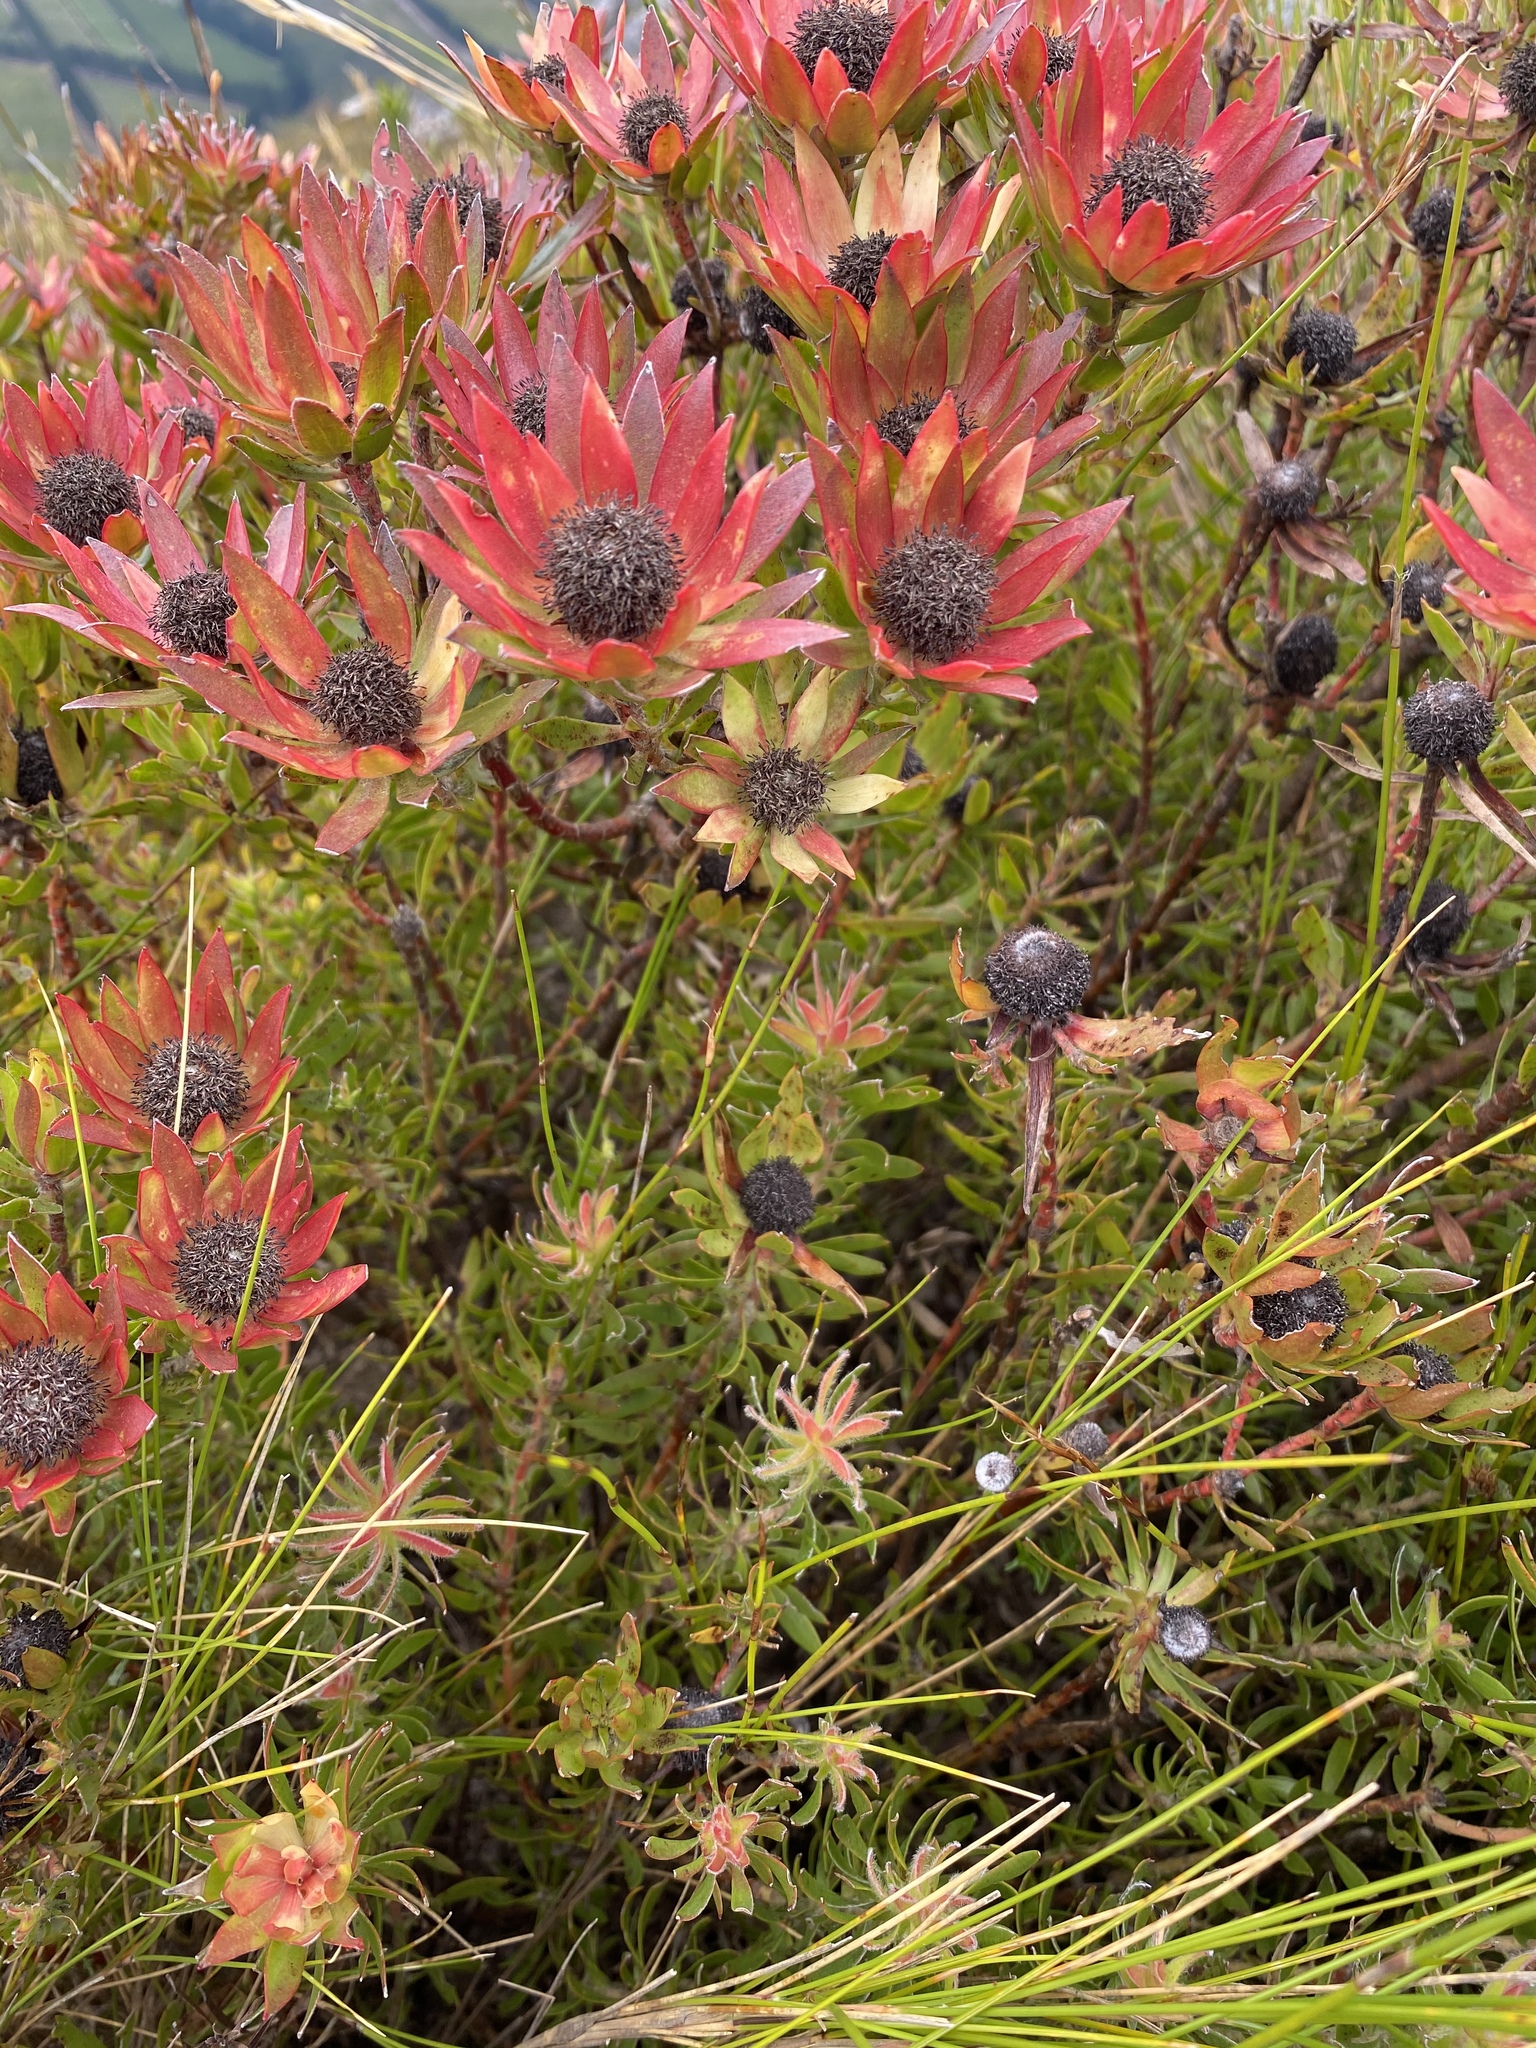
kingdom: Plantae
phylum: Tracheophyta
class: Magnoliopsida
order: Proteales
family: Proteaceae
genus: Leucadendron
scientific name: Leucadendron spissifolium
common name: Spear-leaf conebush
